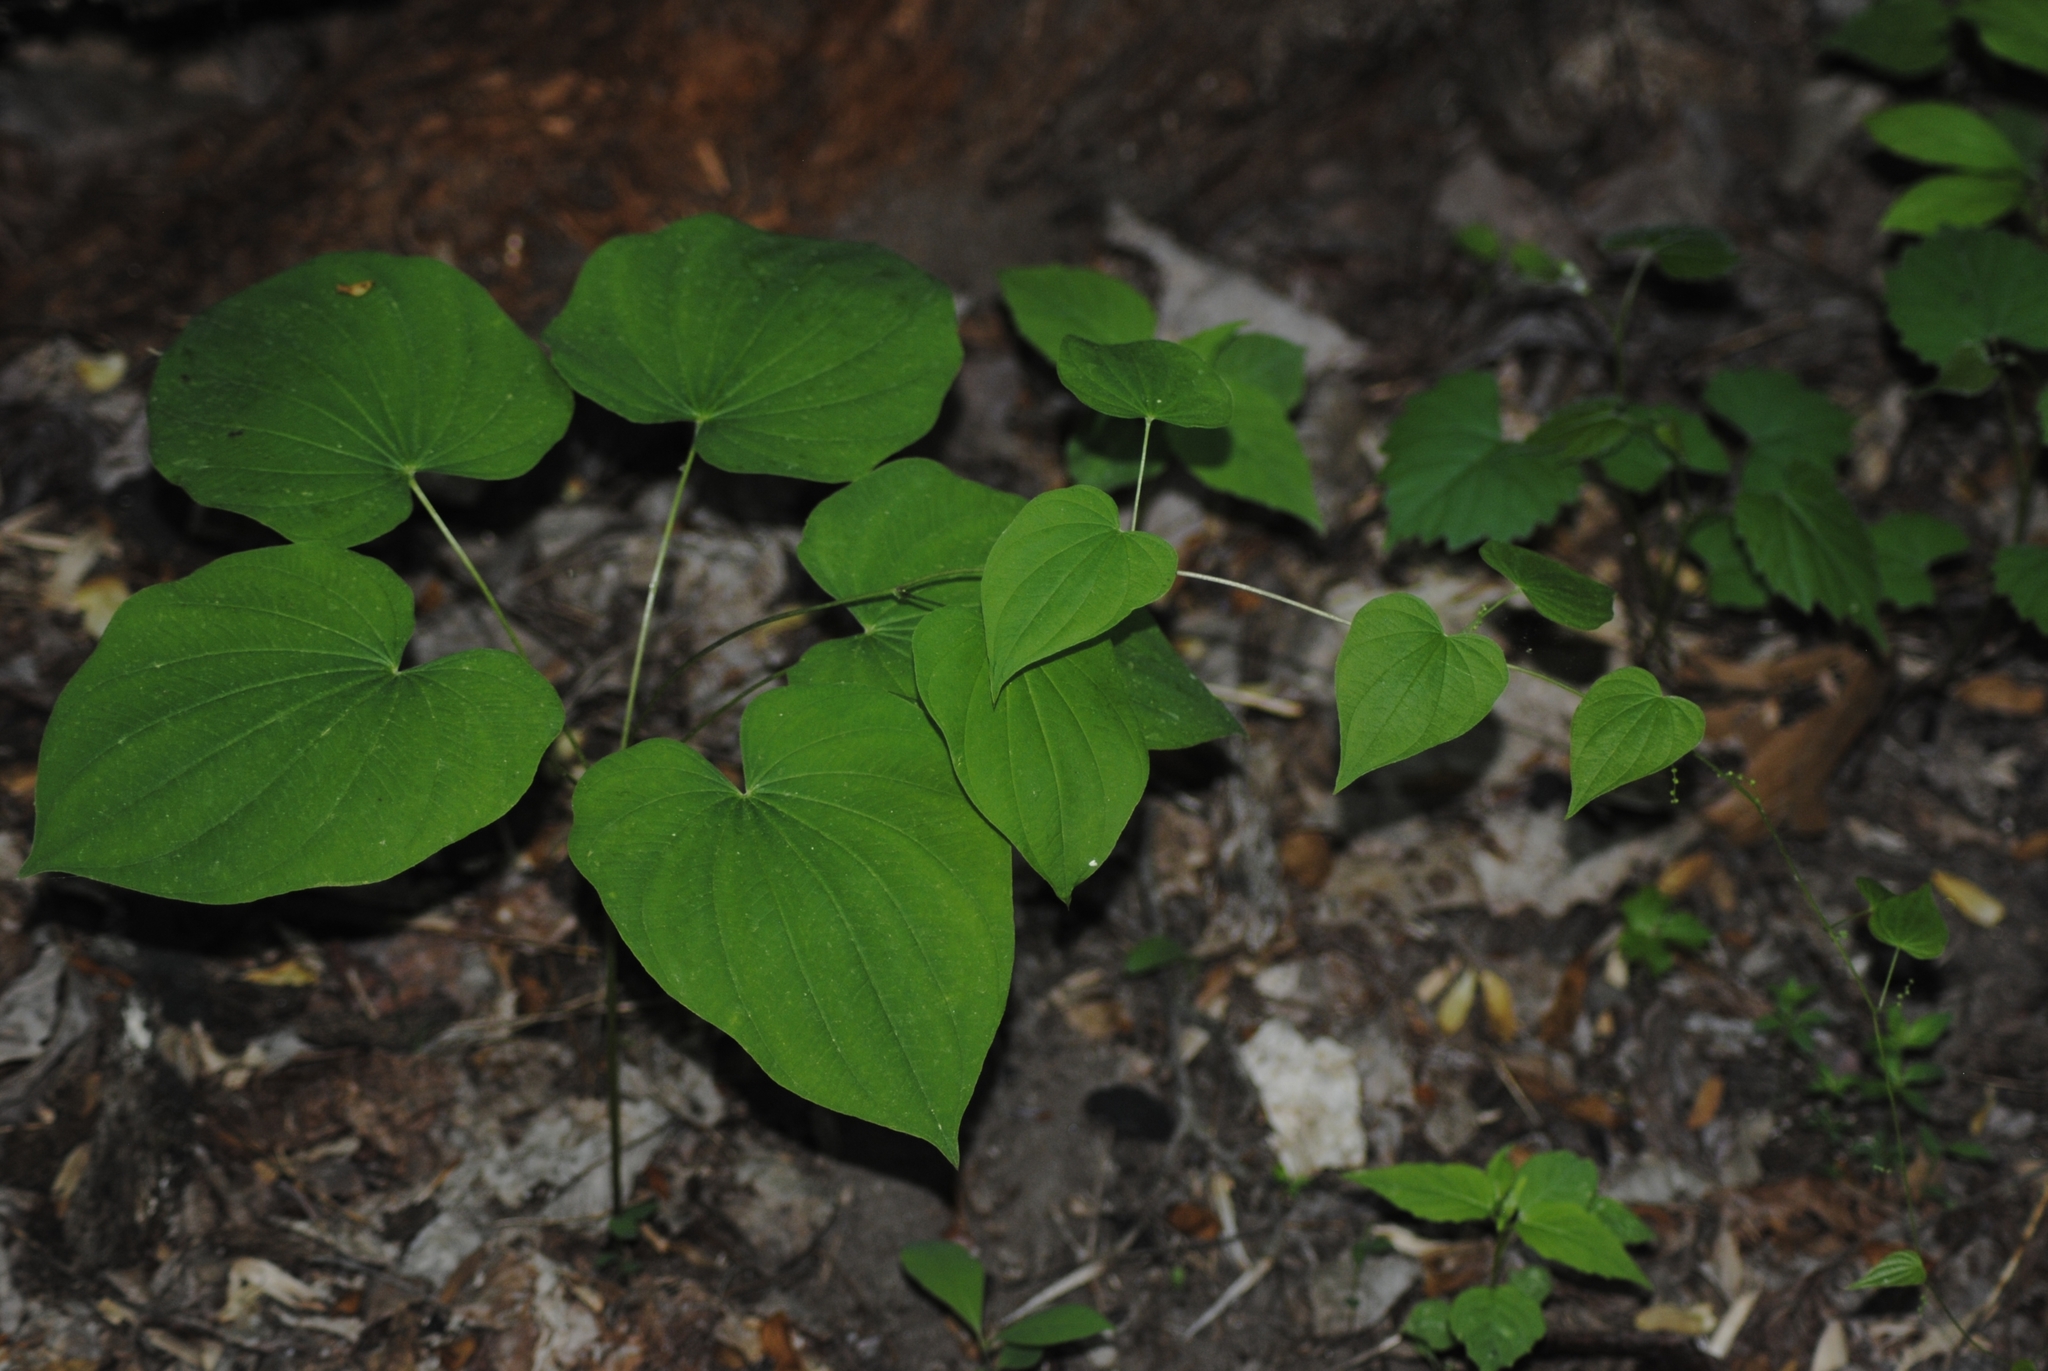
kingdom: Plantae
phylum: Tracheophyta
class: Liliopsida
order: Dioscoreales
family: Dioscoreaceae
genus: Dioscorea
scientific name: Dioscorea villosa
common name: Wild yam
